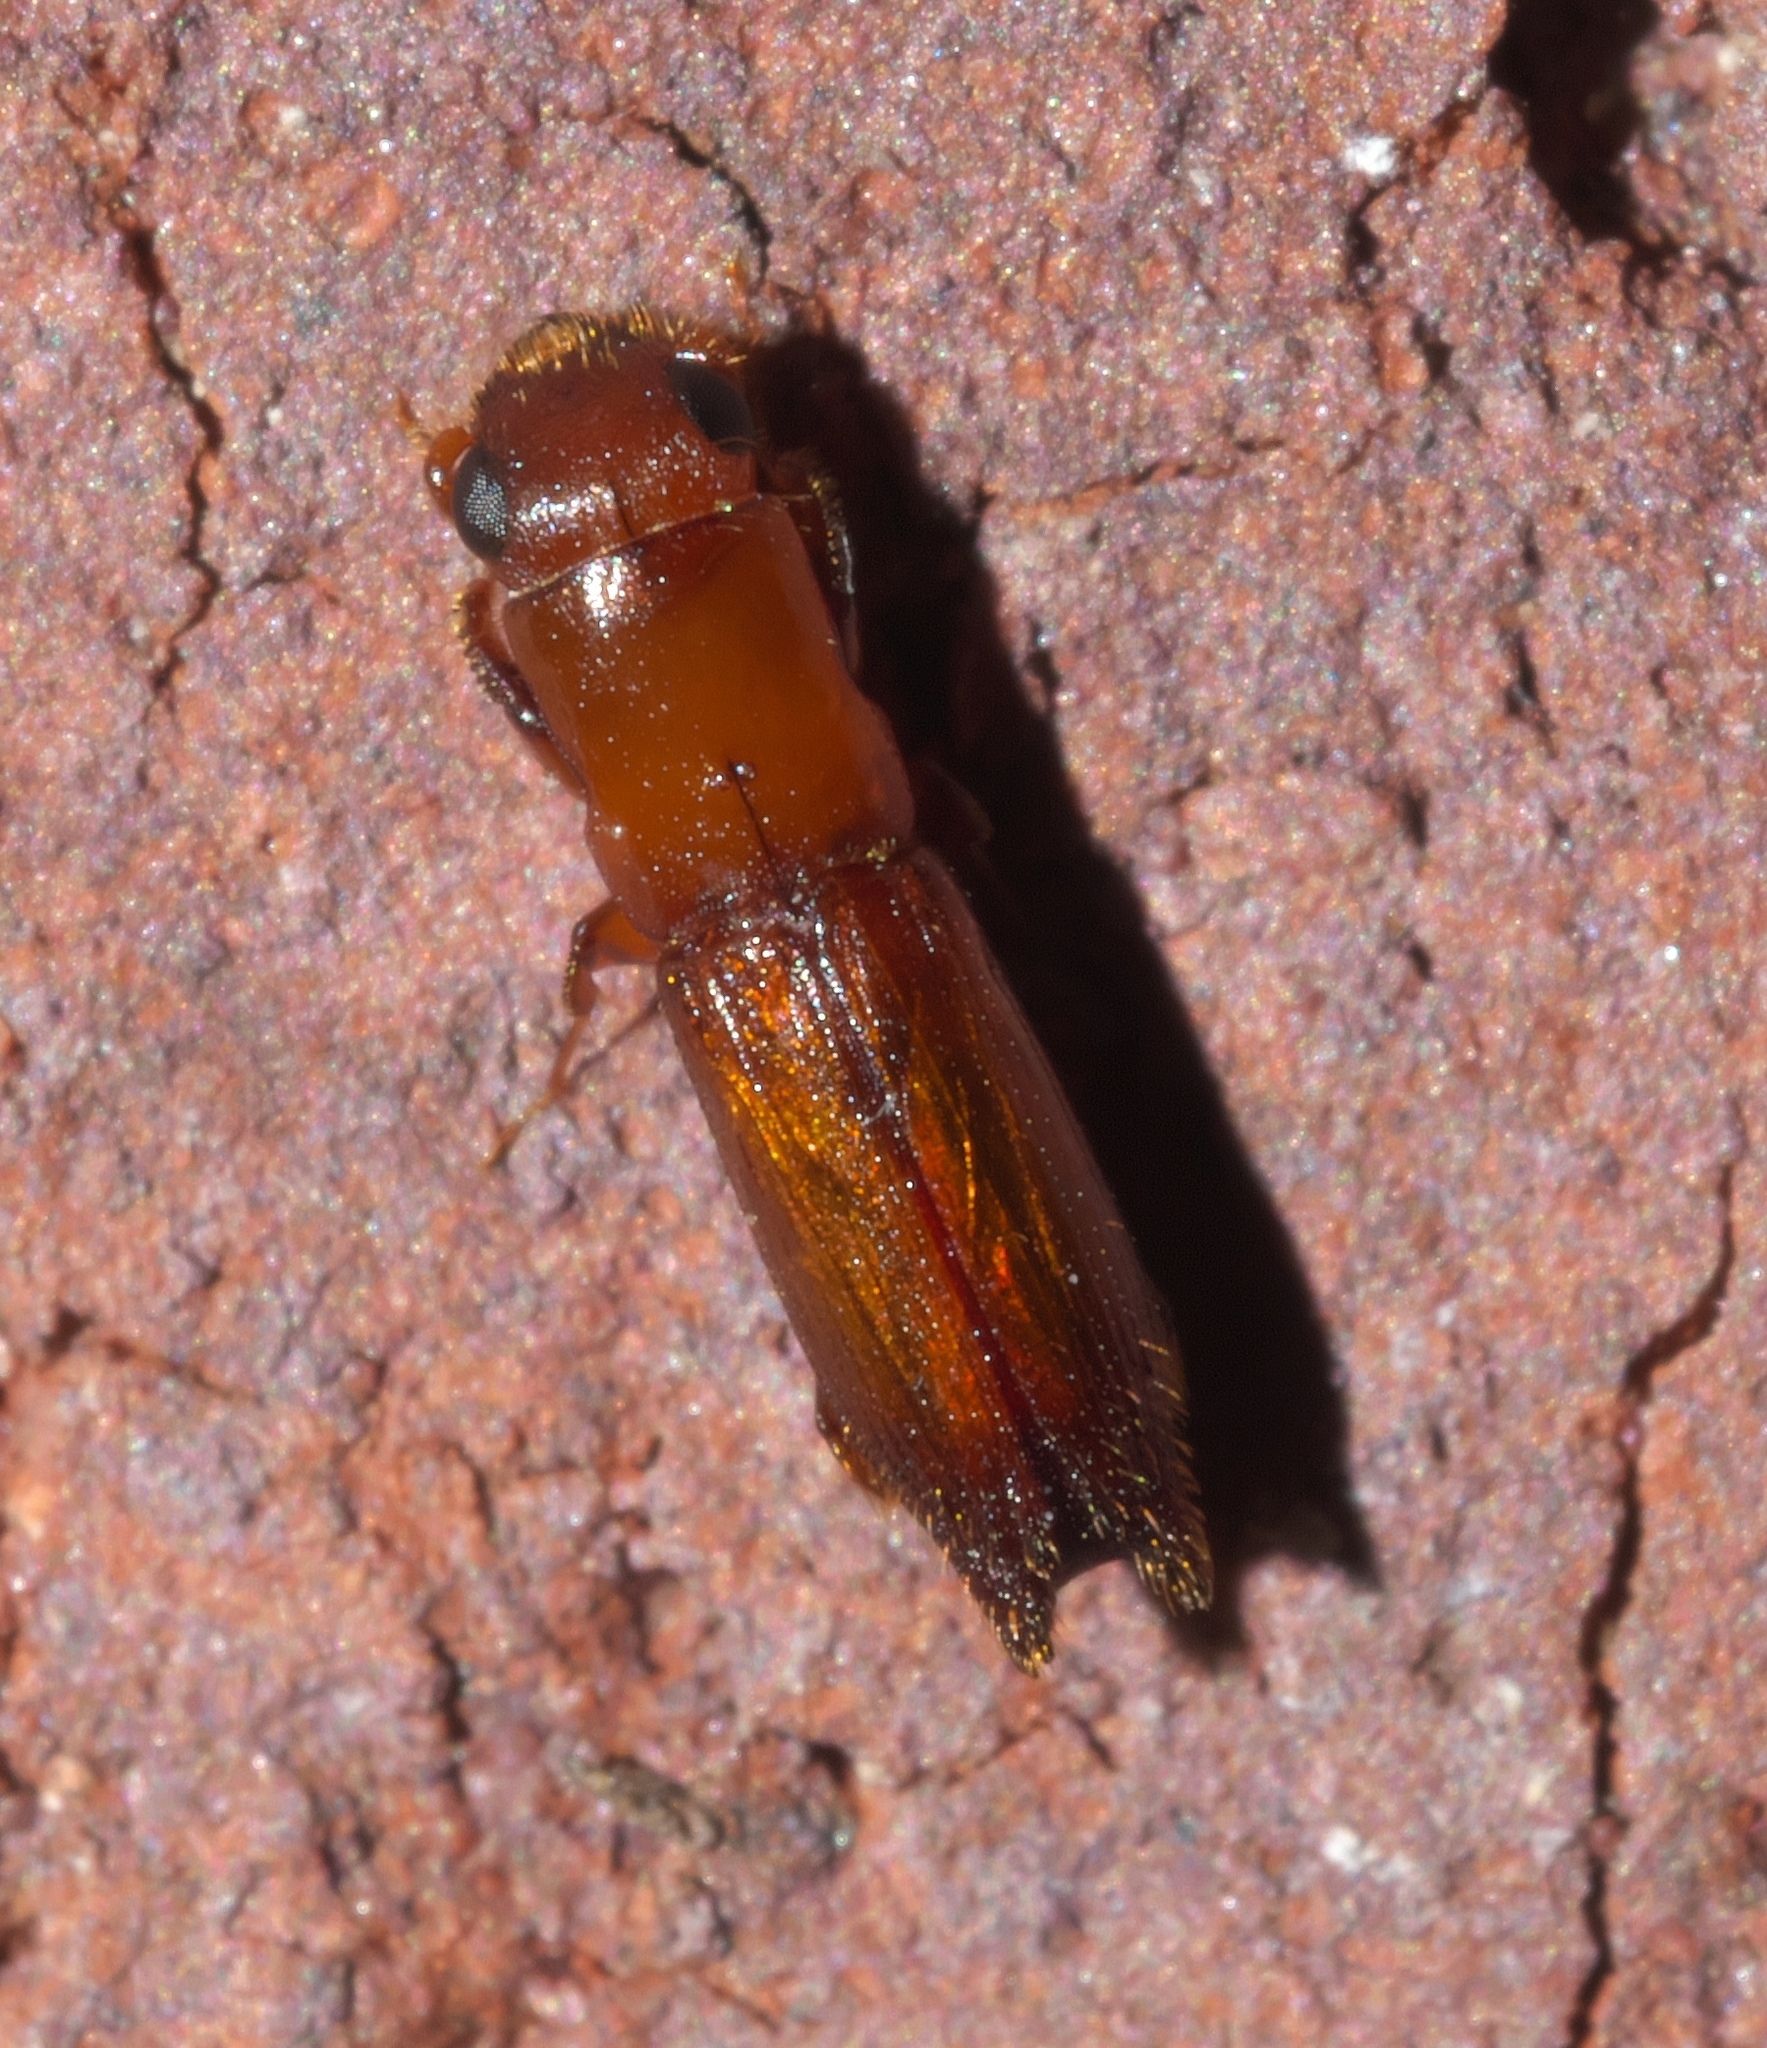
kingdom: Animalia
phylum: Arthropoda
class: Insecta
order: Coleoptera
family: Curculionidae
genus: Euplatypus
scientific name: Euplatypus compositus
